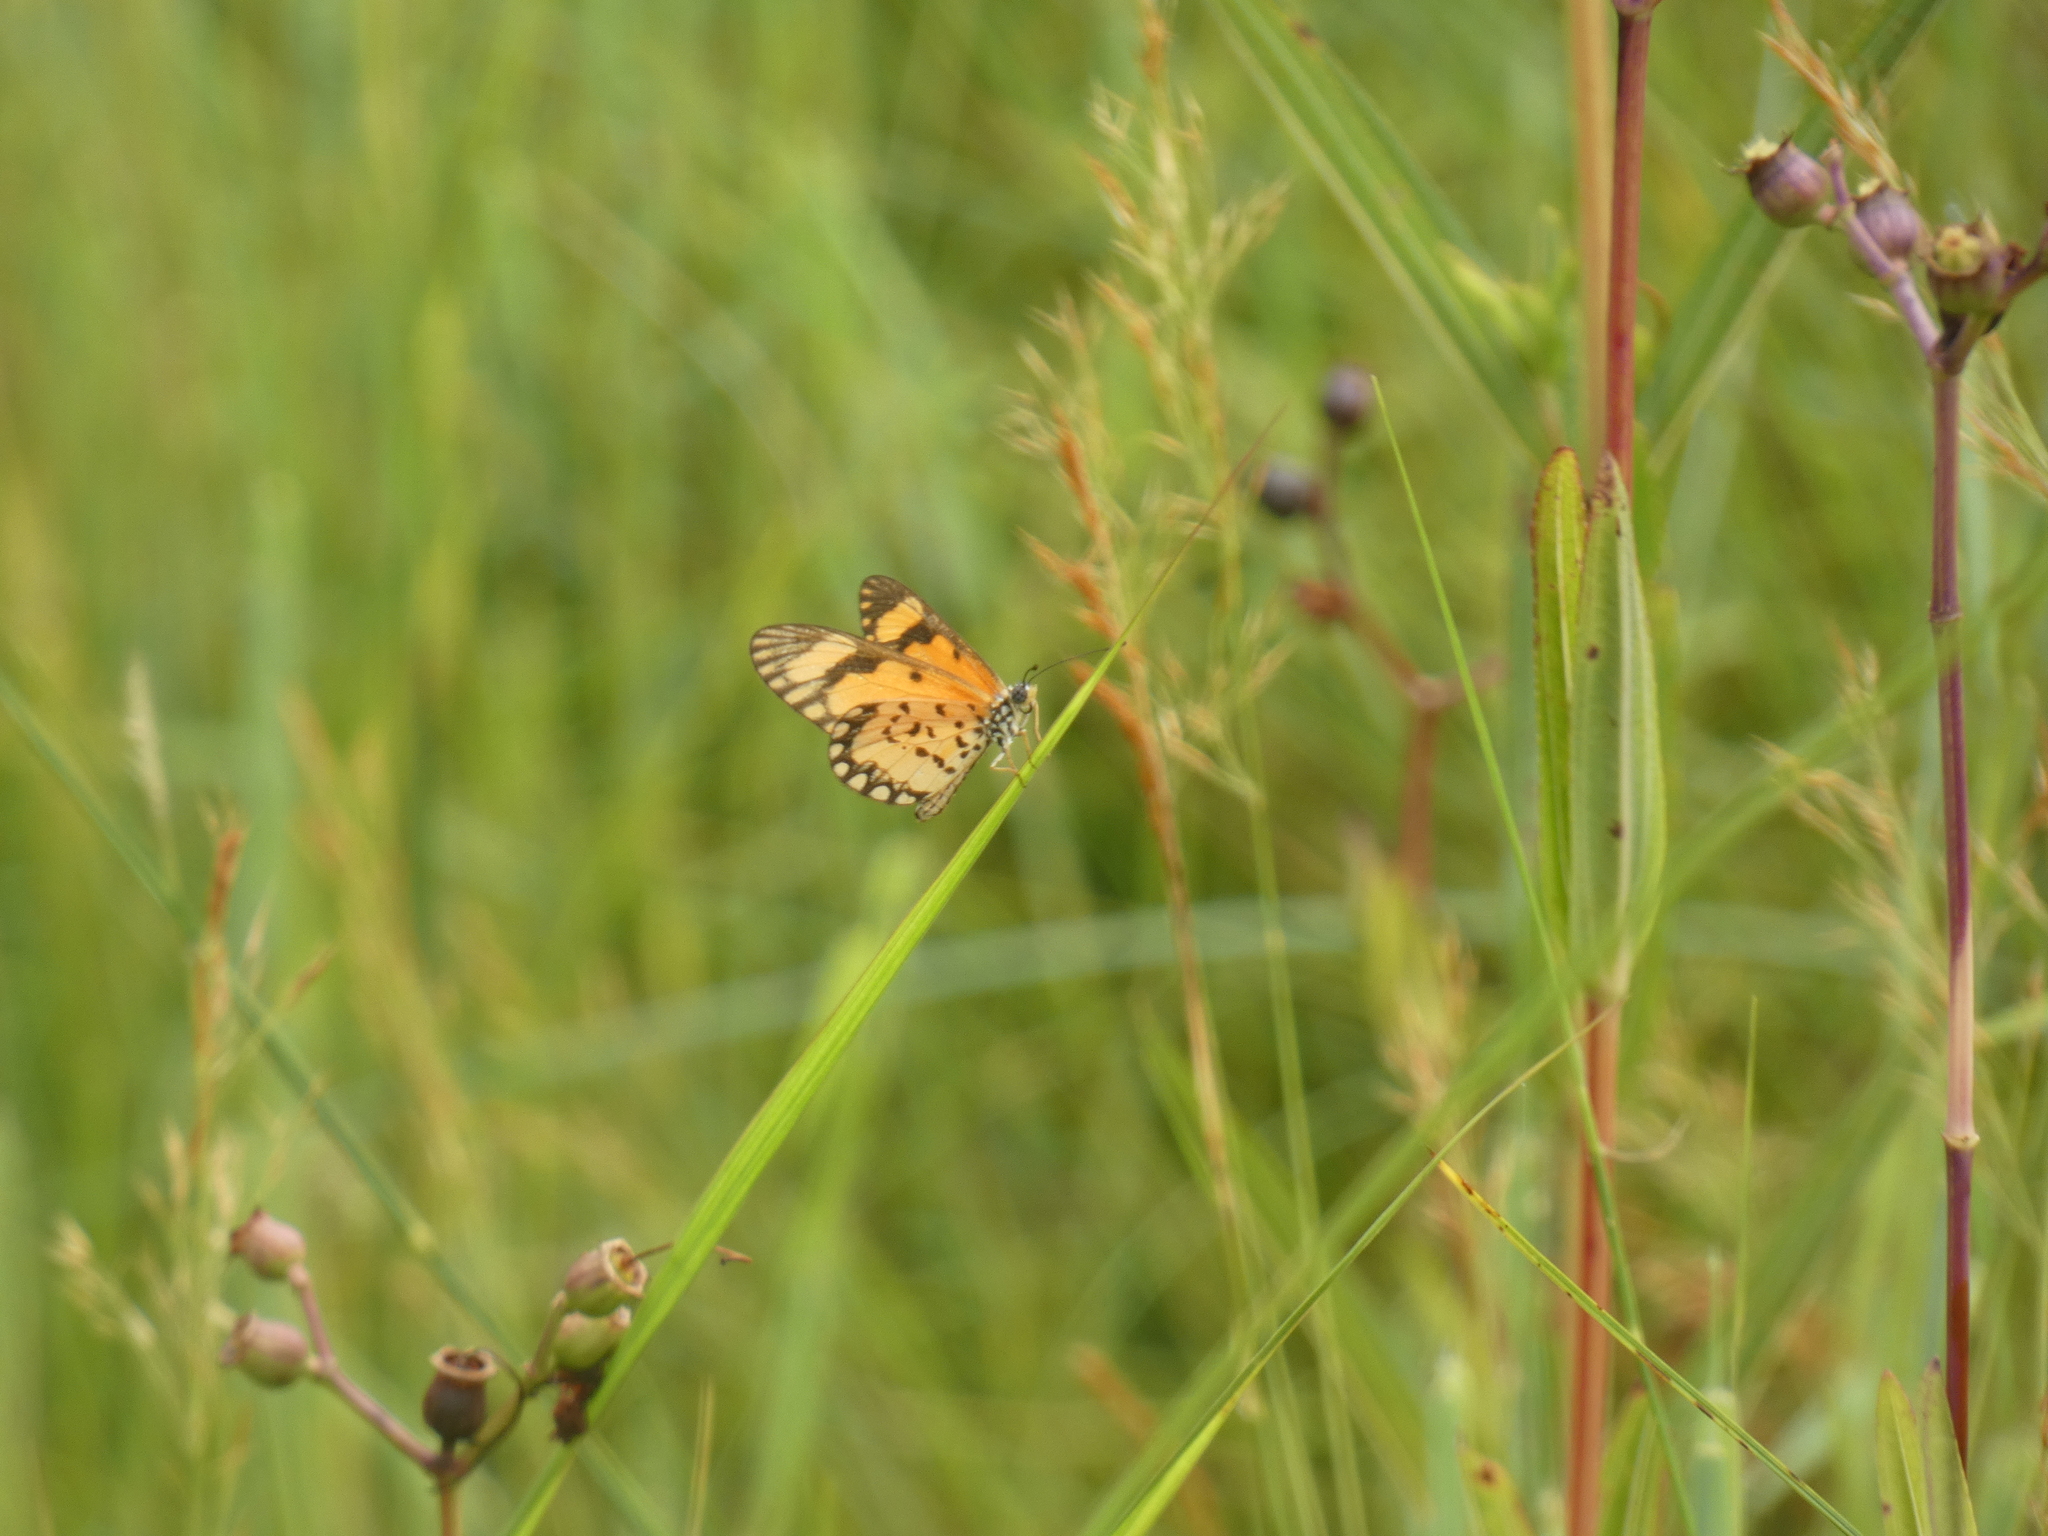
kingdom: Animalia
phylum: Arthropoda
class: Insecta
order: Lepidoptera
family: Nymphalidae
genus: Acraea
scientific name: Acraea Telchinia serena
